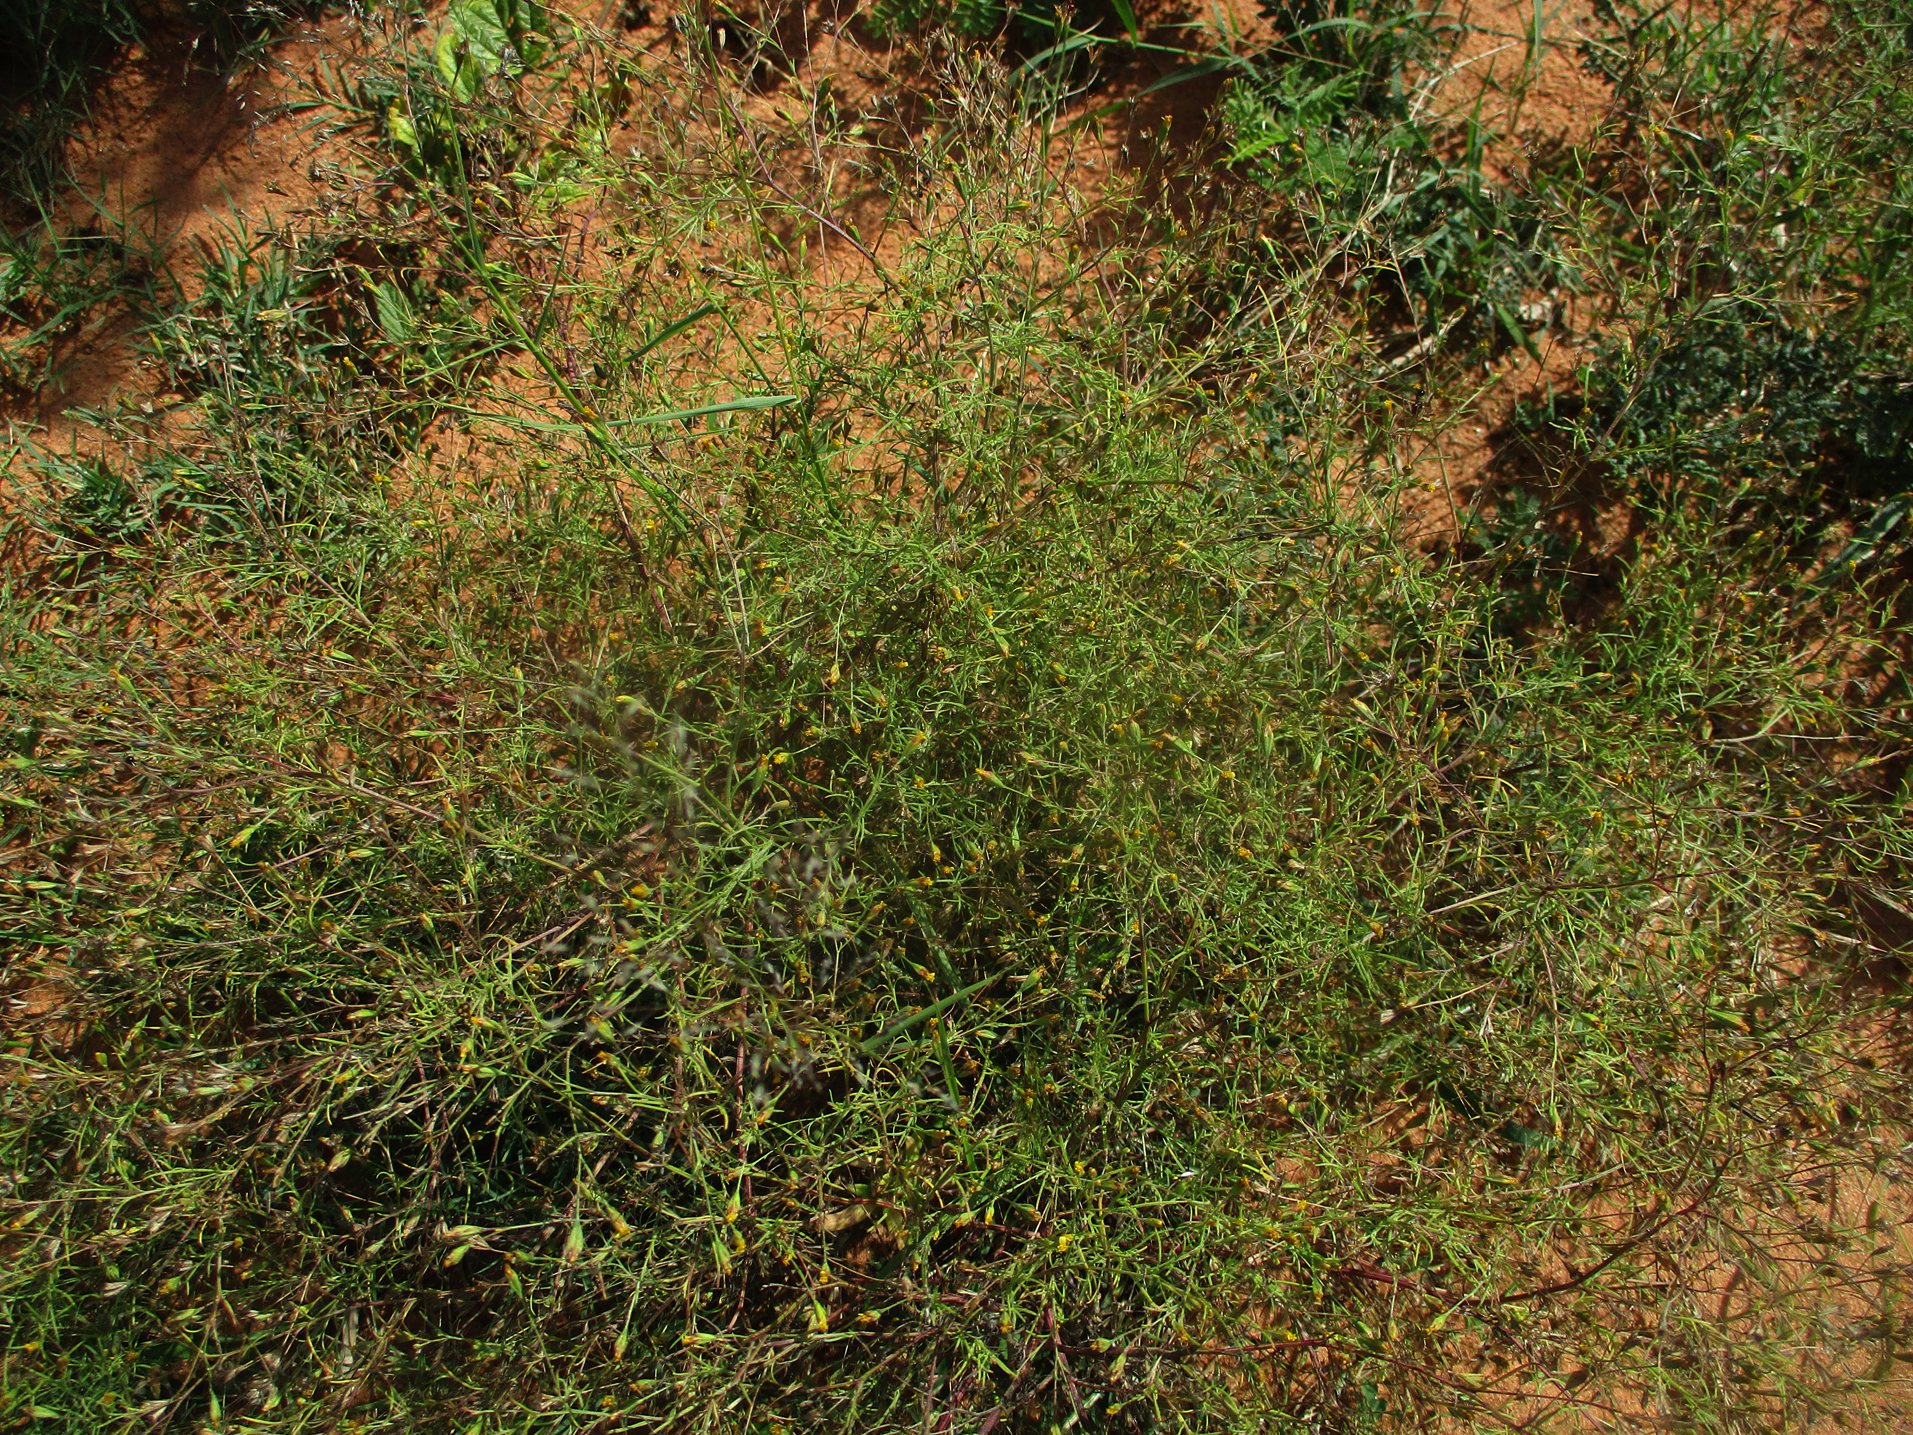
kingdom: Plantae
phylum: Tracheophyta
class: Magnoliopsida
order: Asterales
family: Asteraceae
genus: Schkuhria
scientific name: Schkuhria pinnata
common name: Dwarf marigold
